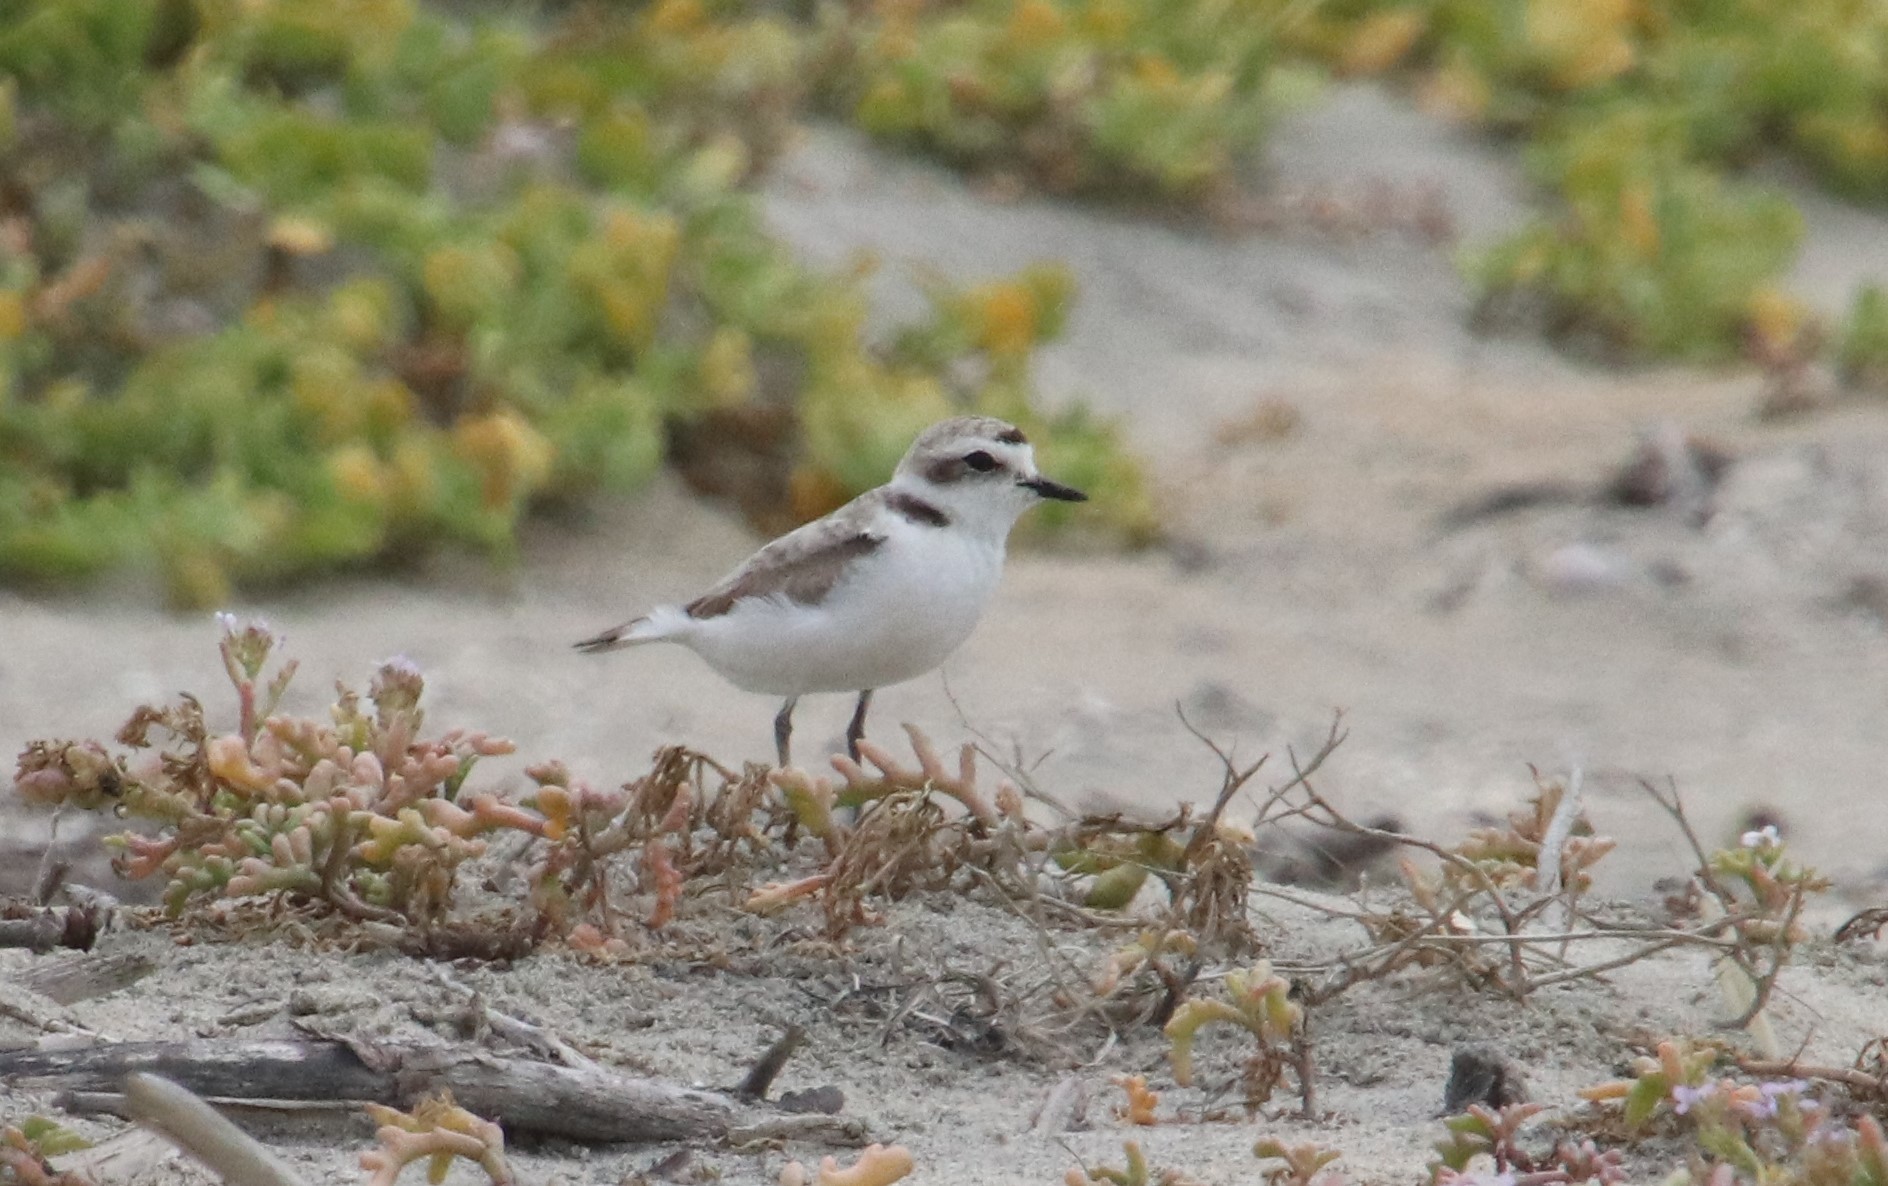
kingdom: Animalia
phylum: Chordata
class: Aves
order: Charadriiformes
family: Charadriidae
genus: Anarhynchus
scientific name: Anarhynchus
